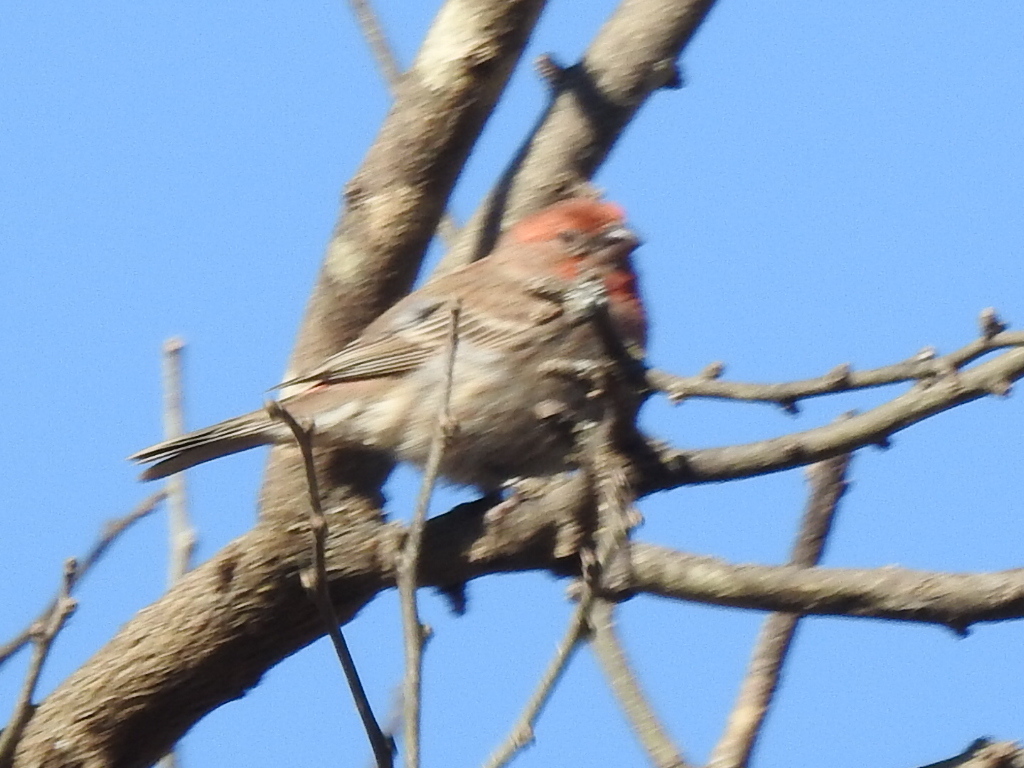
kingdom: Animalia
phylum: Chordata
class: Aves
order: Passeriformes
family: Fringillidae
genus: Haemorhous
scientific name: Haemorhous mexicanus
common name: House finch
